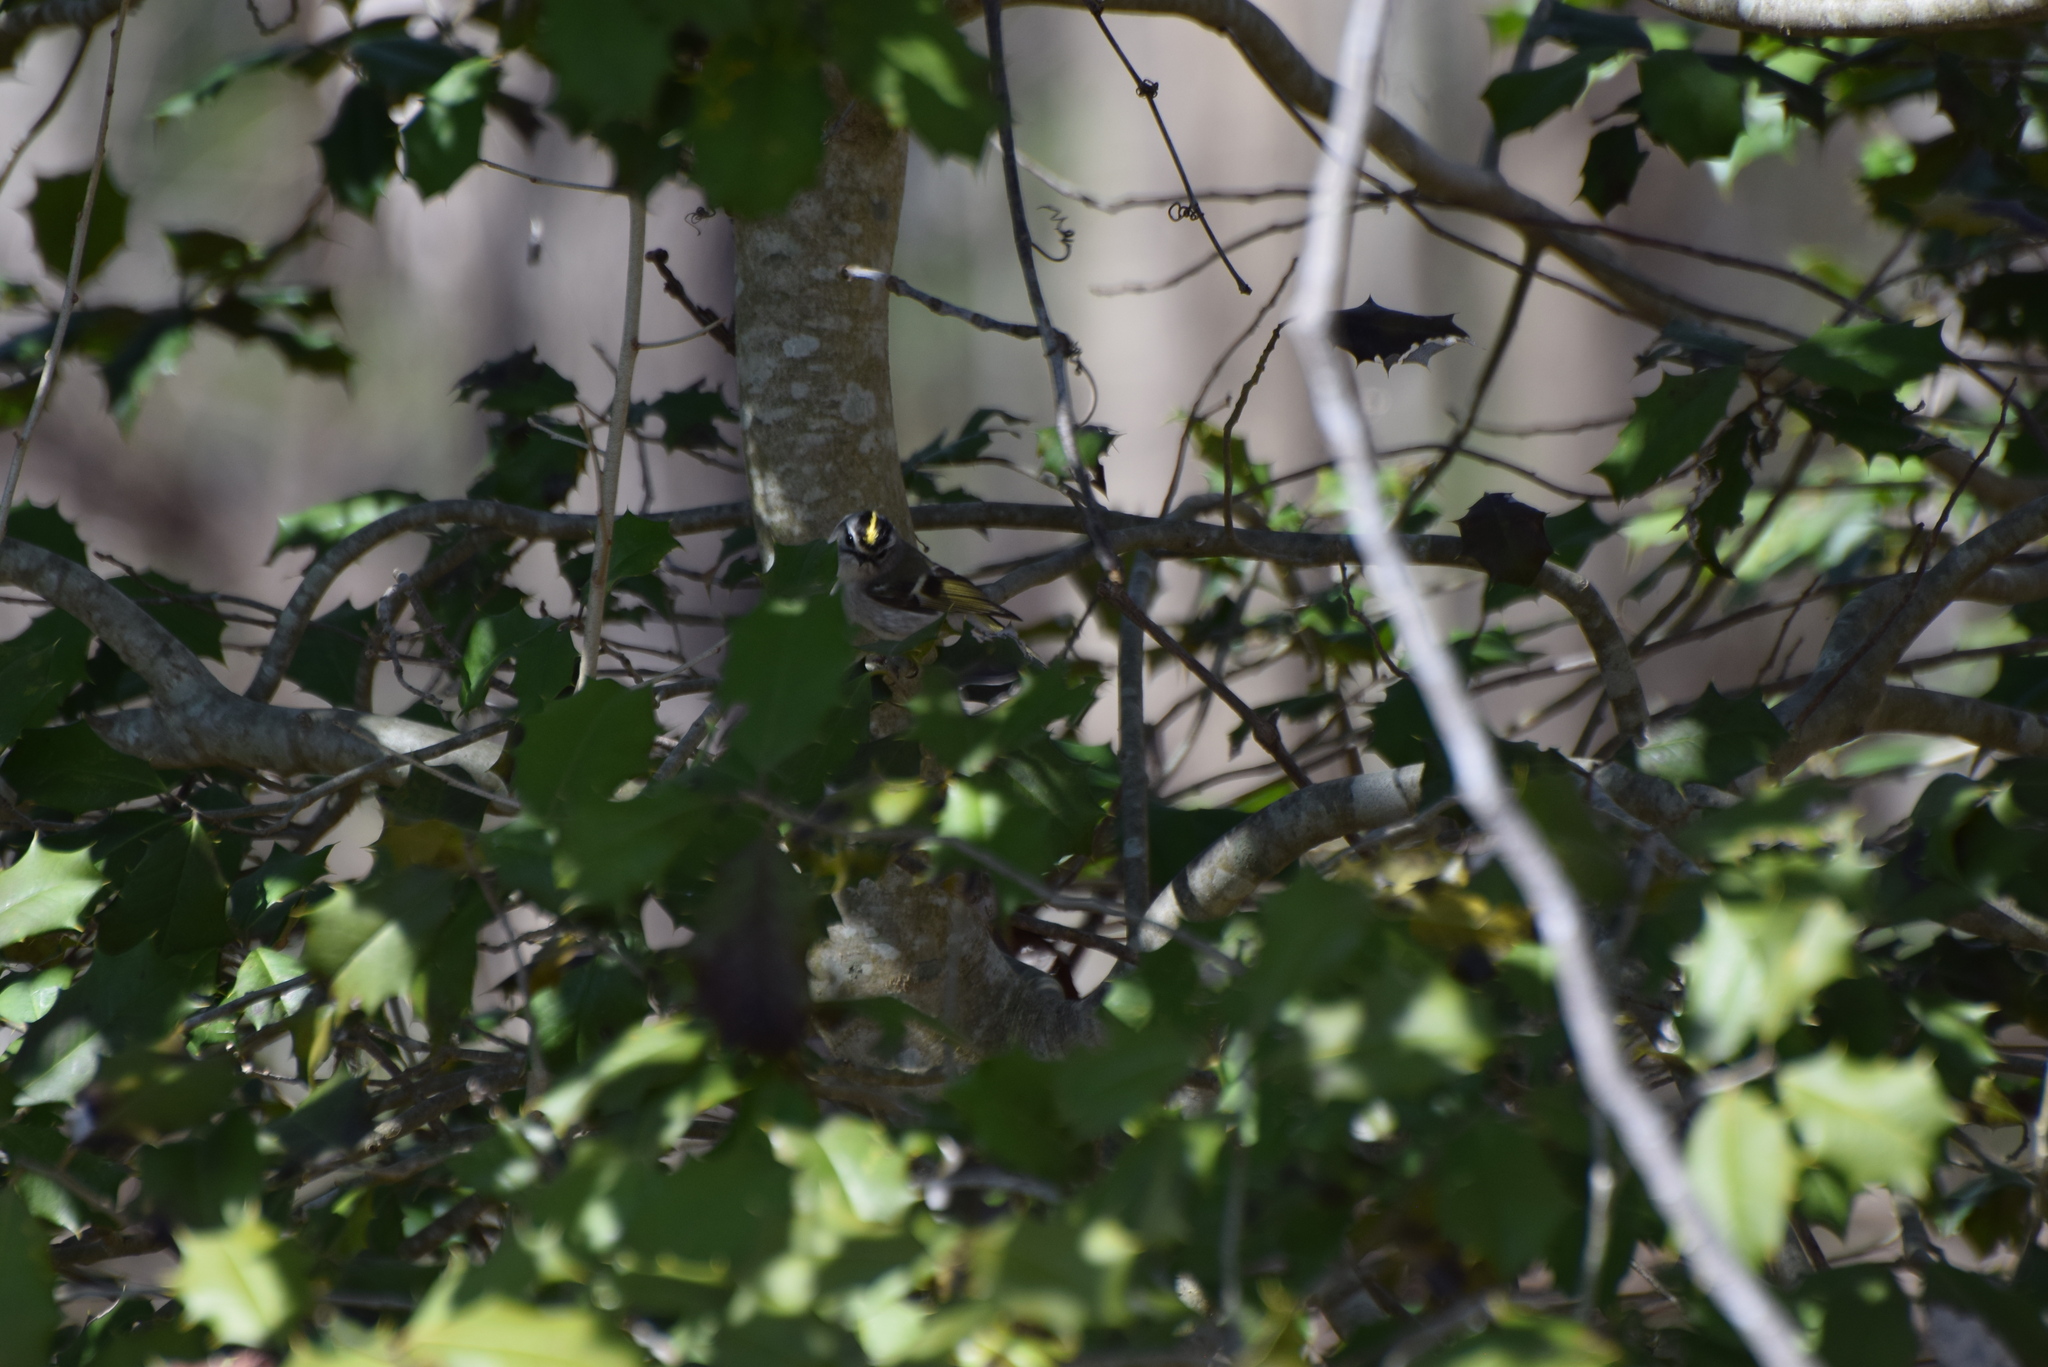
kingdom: Animalia
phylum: Chordata
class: Aves
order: Passeriformes
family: Regulidae
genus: Regulus
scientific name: Regulus satrapa
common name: Golden-crowned kinglet
